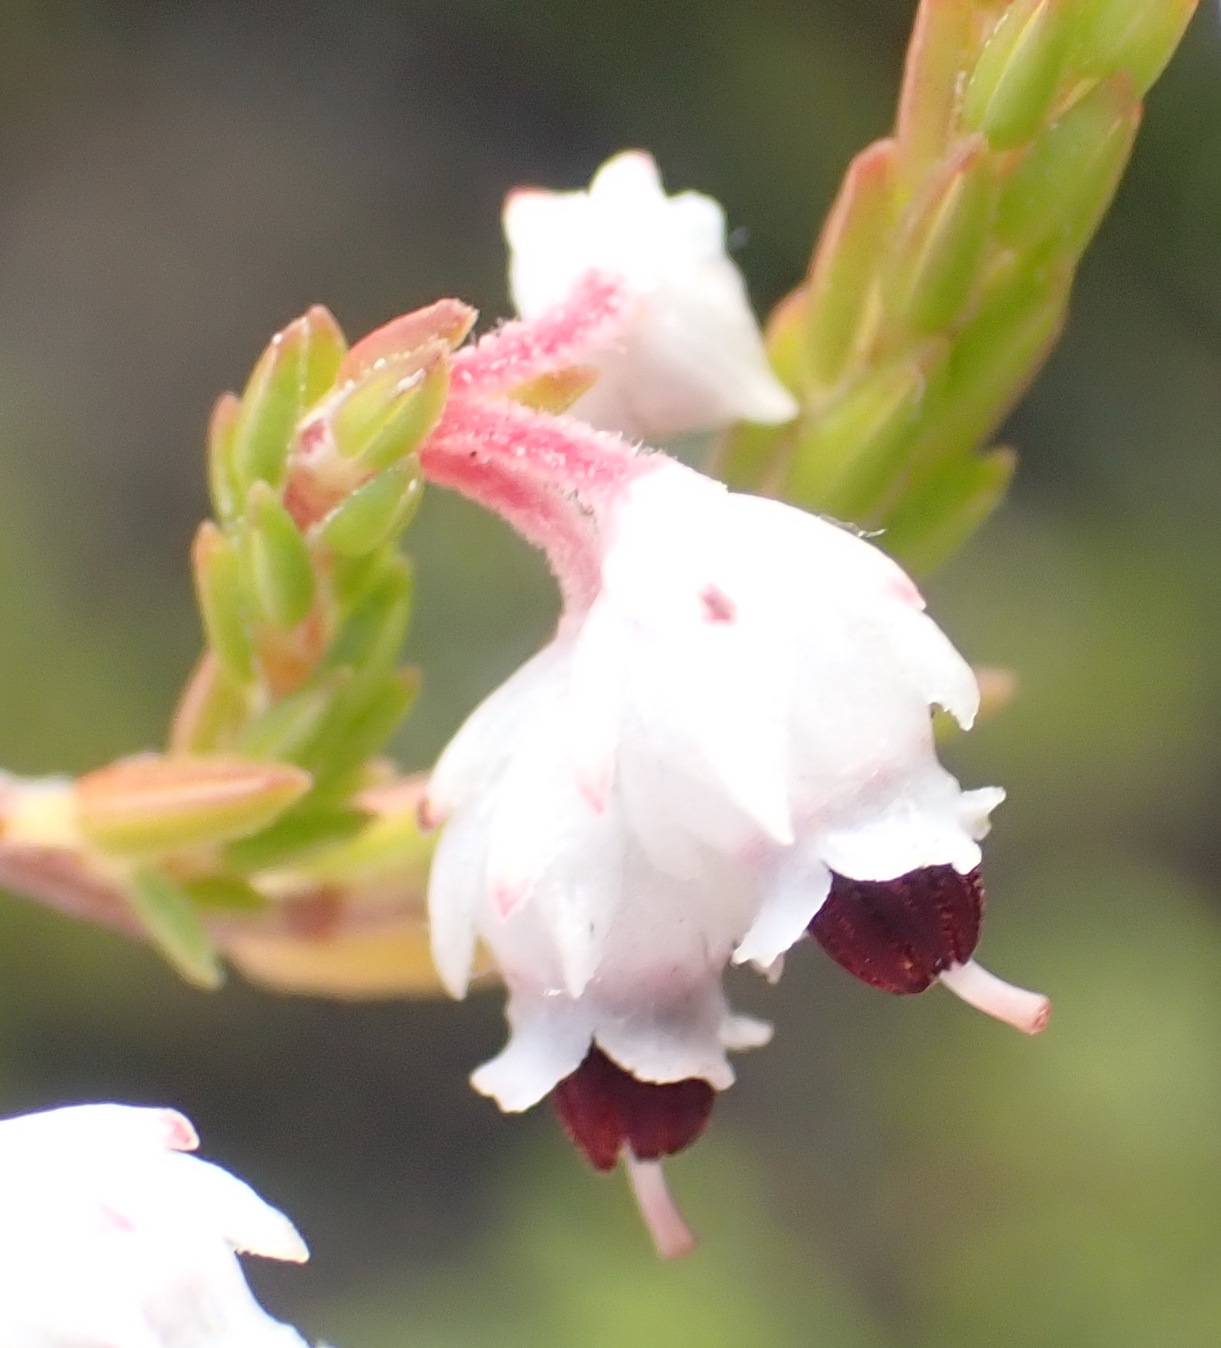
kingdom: Plantae
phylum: Tracheophyta
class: Magnoliopsida
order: Ericales
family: Ericaceae
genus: Erica
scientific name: Erica triceps
